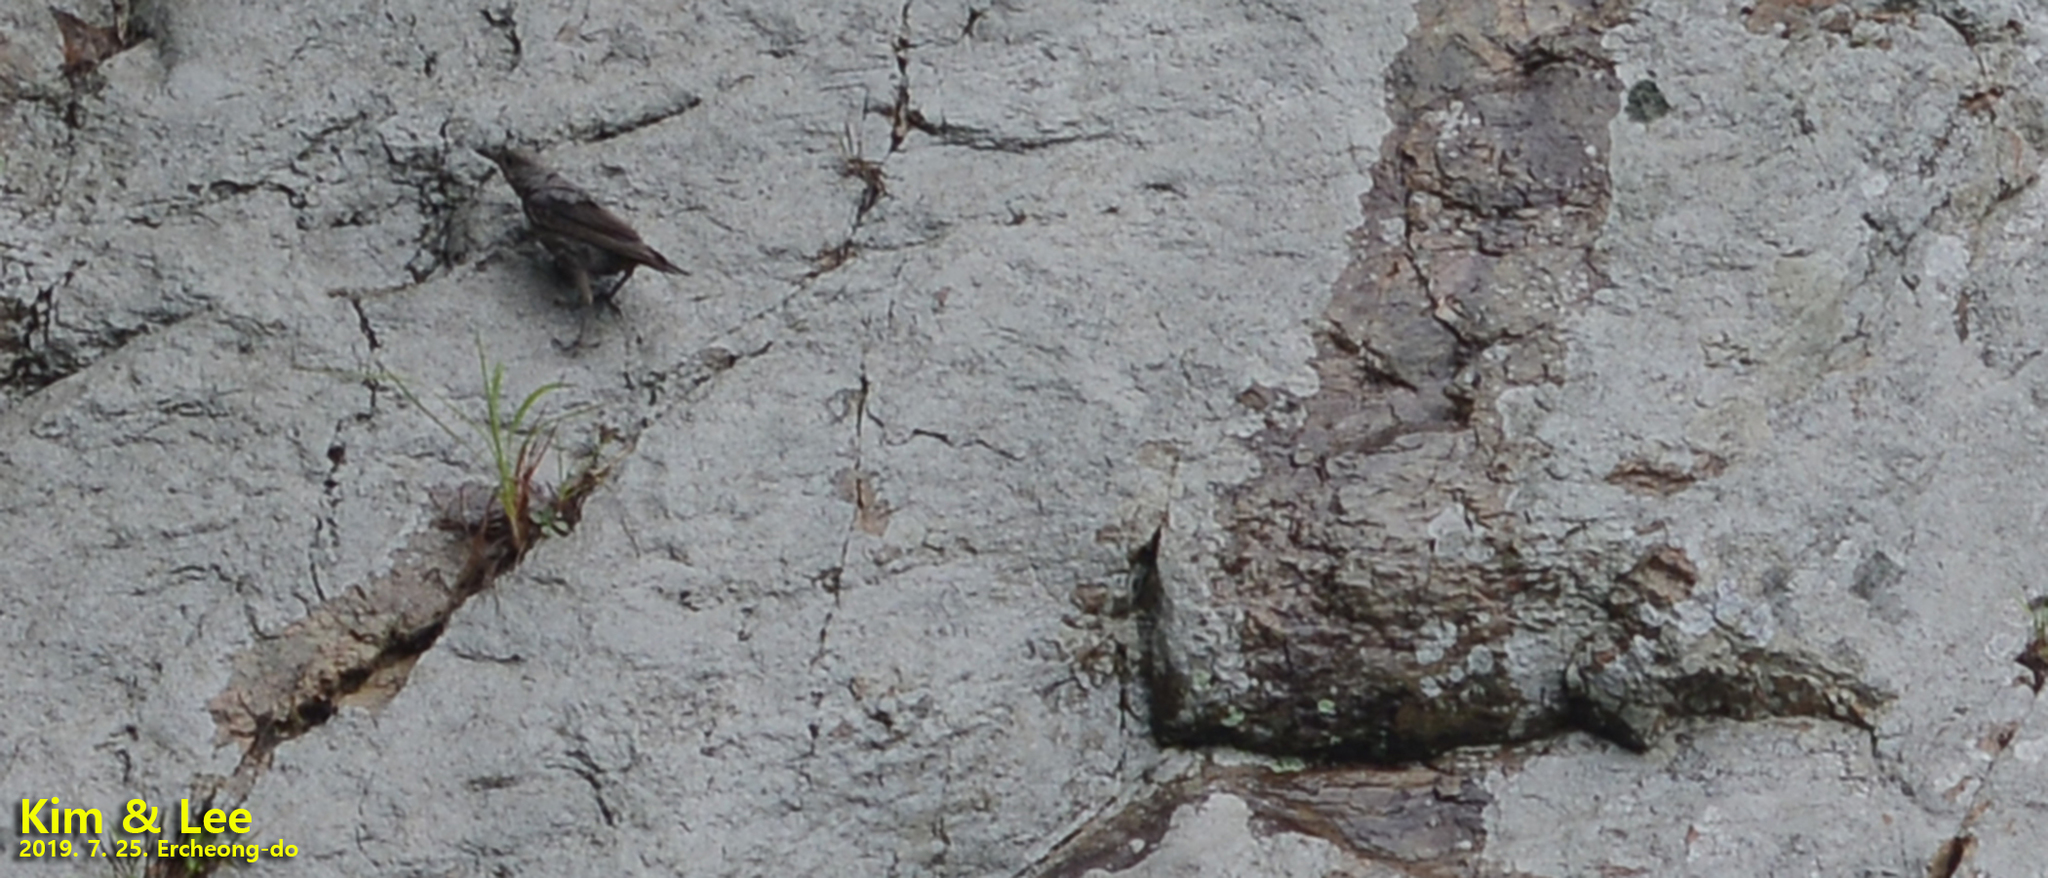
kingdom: Animalia
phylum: Chordata
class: Aves
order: Passeriformes
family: Muscicapidae
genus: Monticola
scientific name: Monticola solitarius
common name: Blue rock thrush
